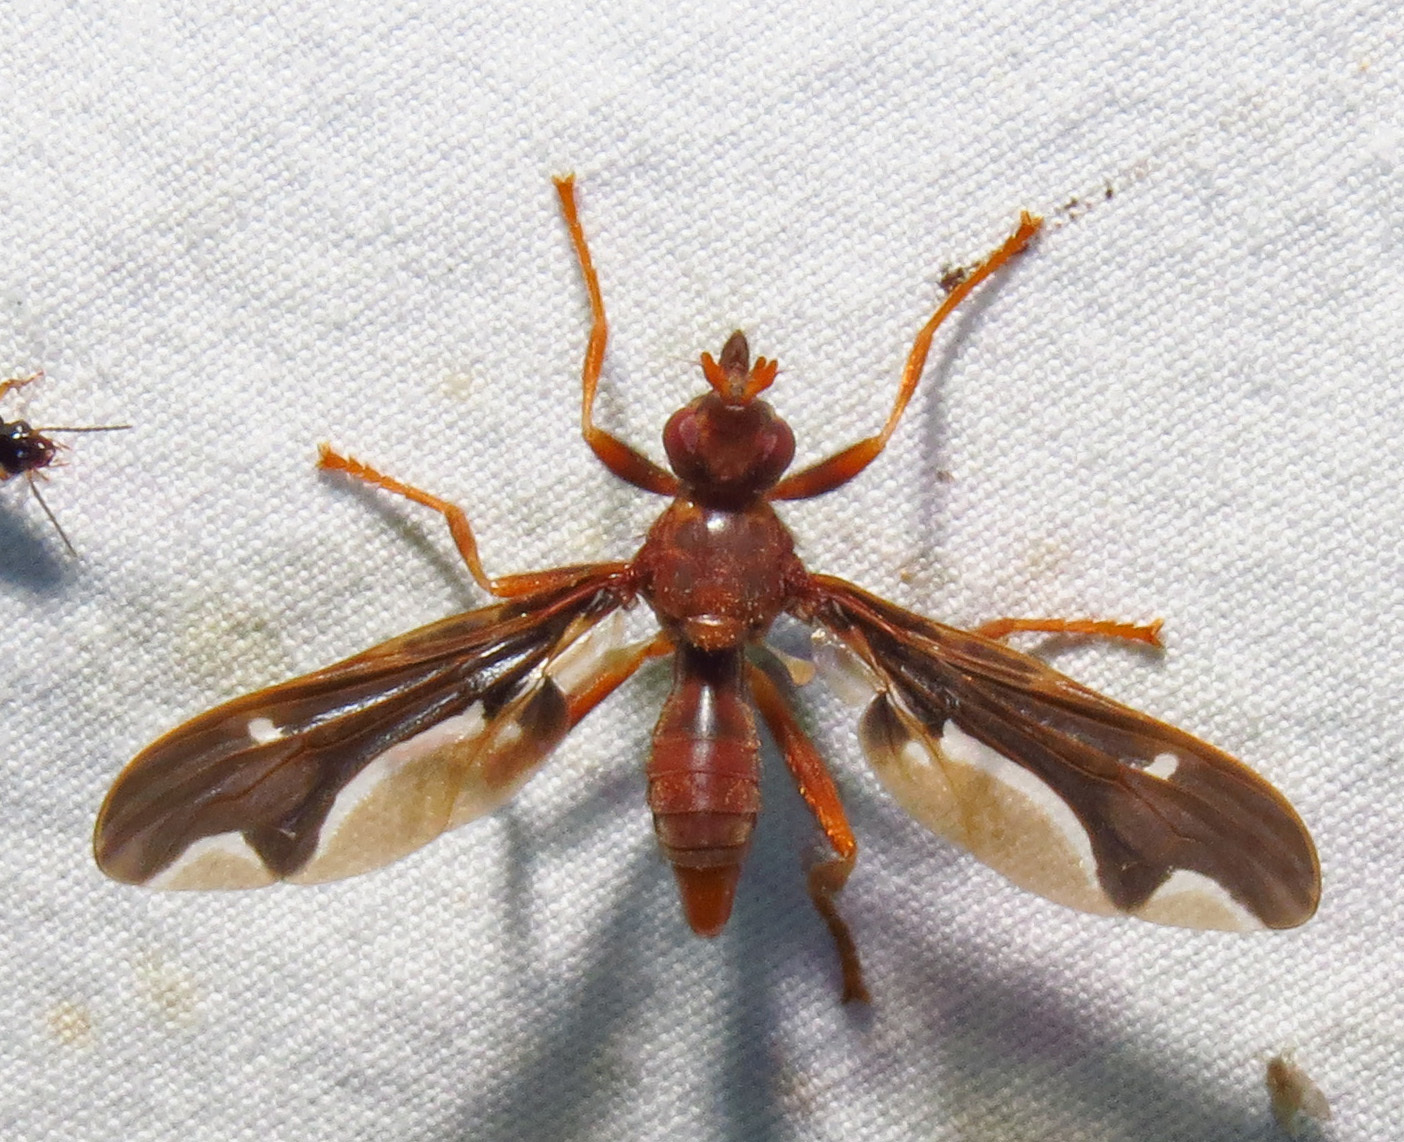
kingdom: Animalia
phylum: Arthropoda
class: Insecta
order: Diptera
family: Pyrgotidae
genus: Pyrgota
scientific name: Pyrgota undata
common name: Waved light fly
